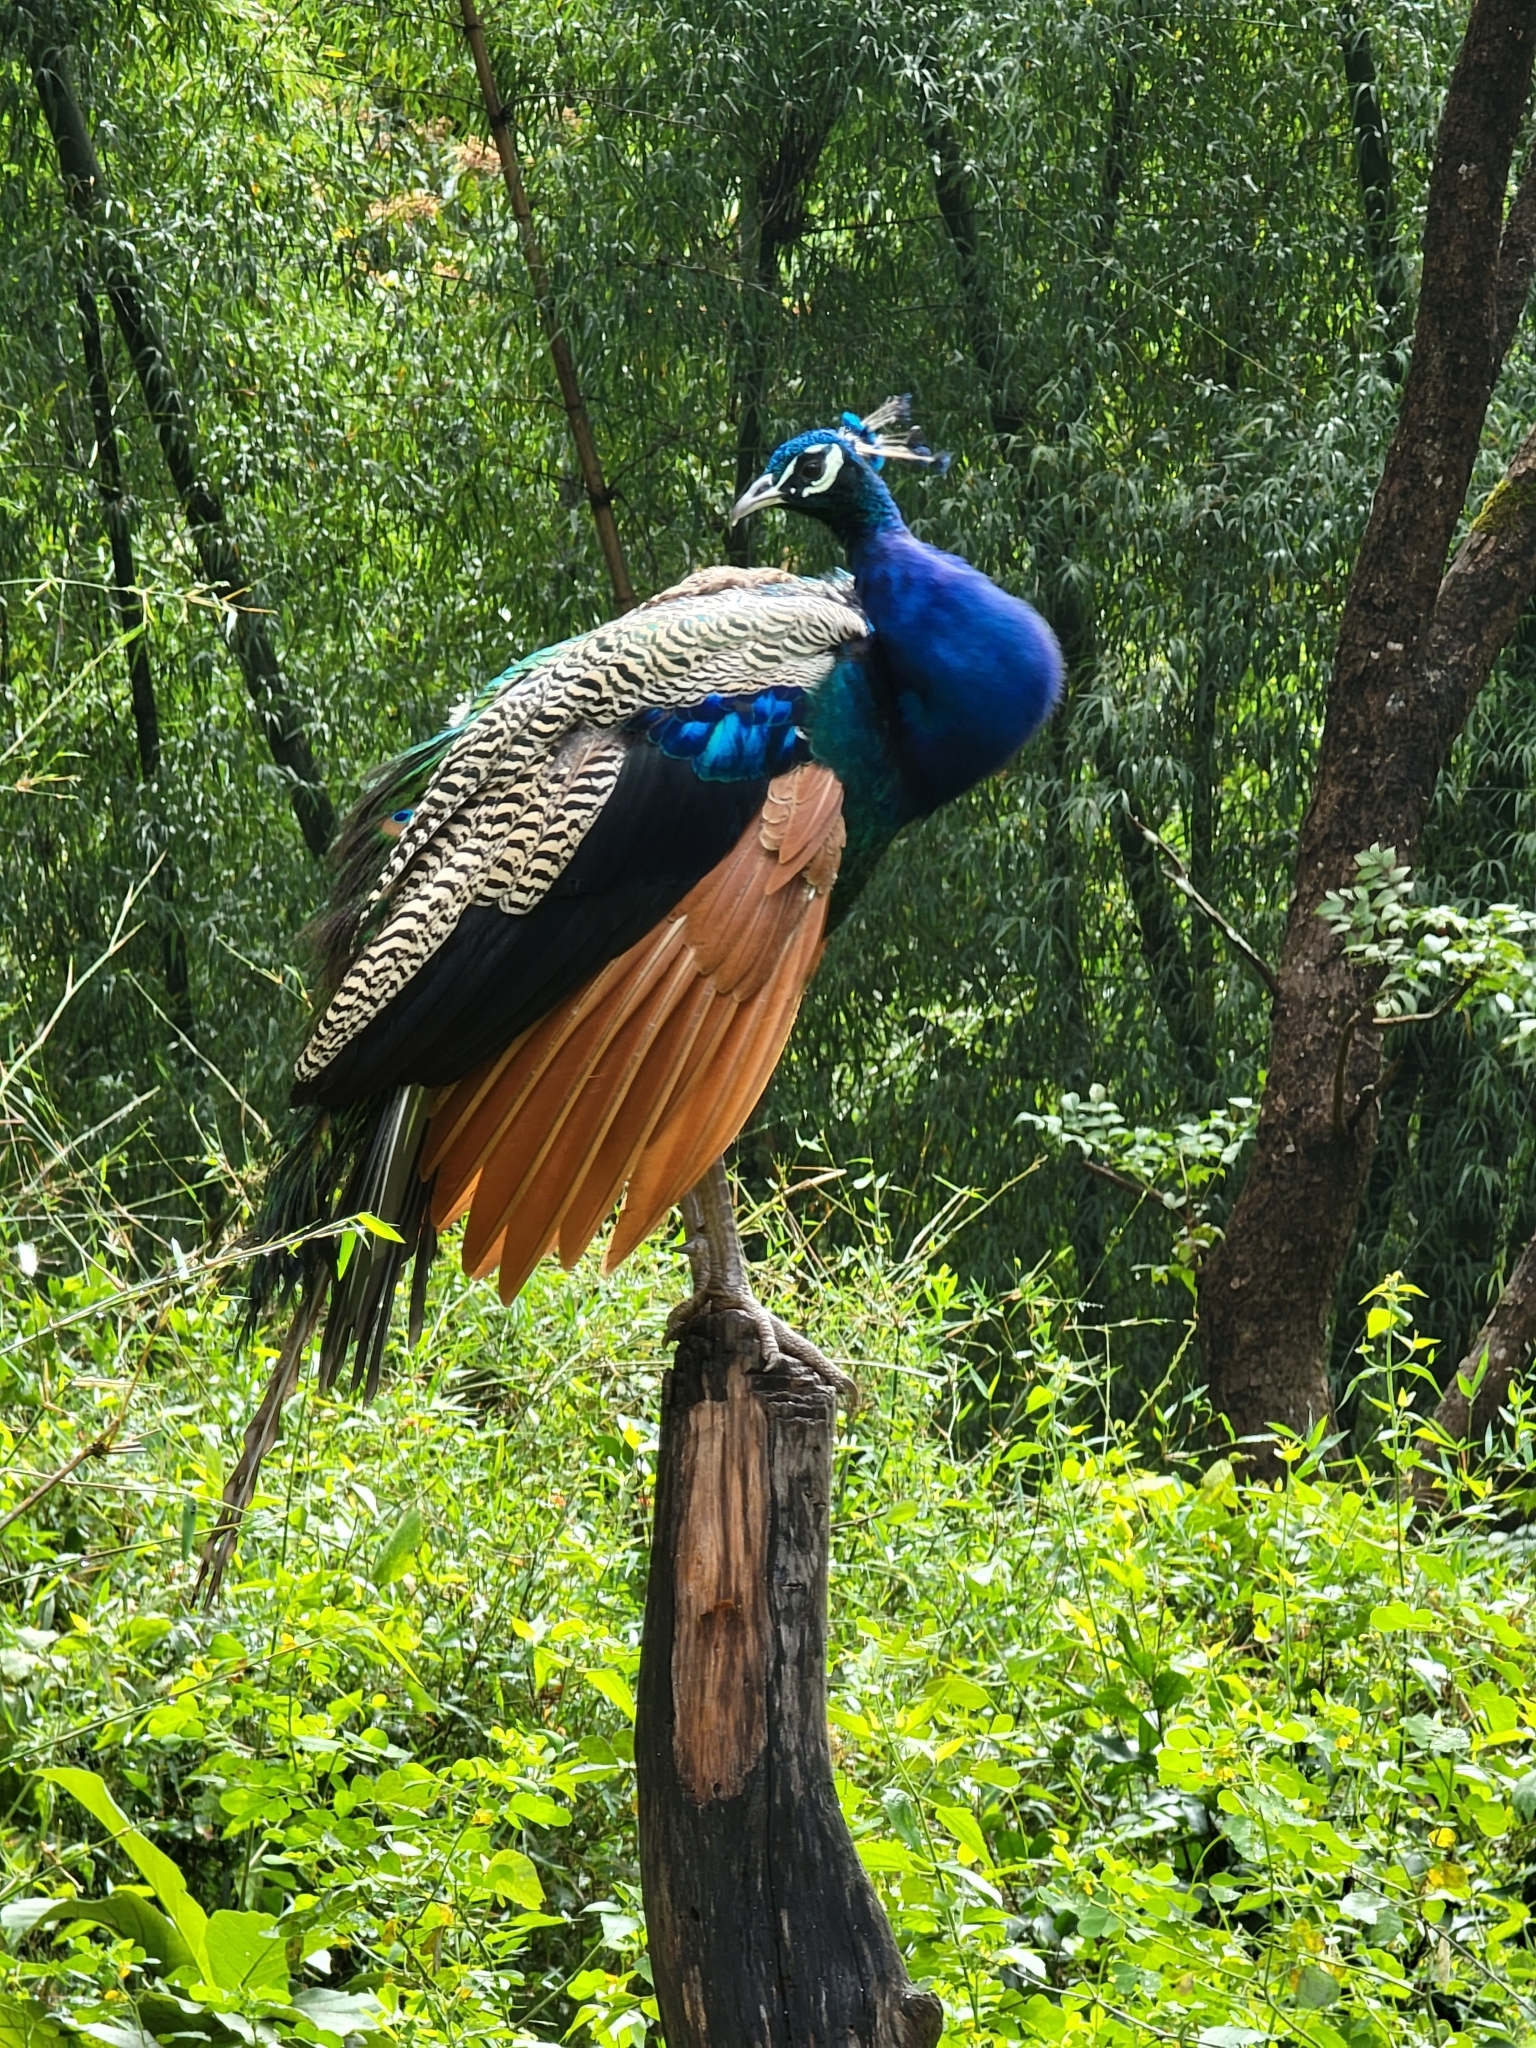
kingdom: Animalia
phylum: Chordata
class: Aves
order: Galliformes
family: Phasianidae
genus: Pavo
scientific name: Pavo cristatus
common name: Indian peafowl
